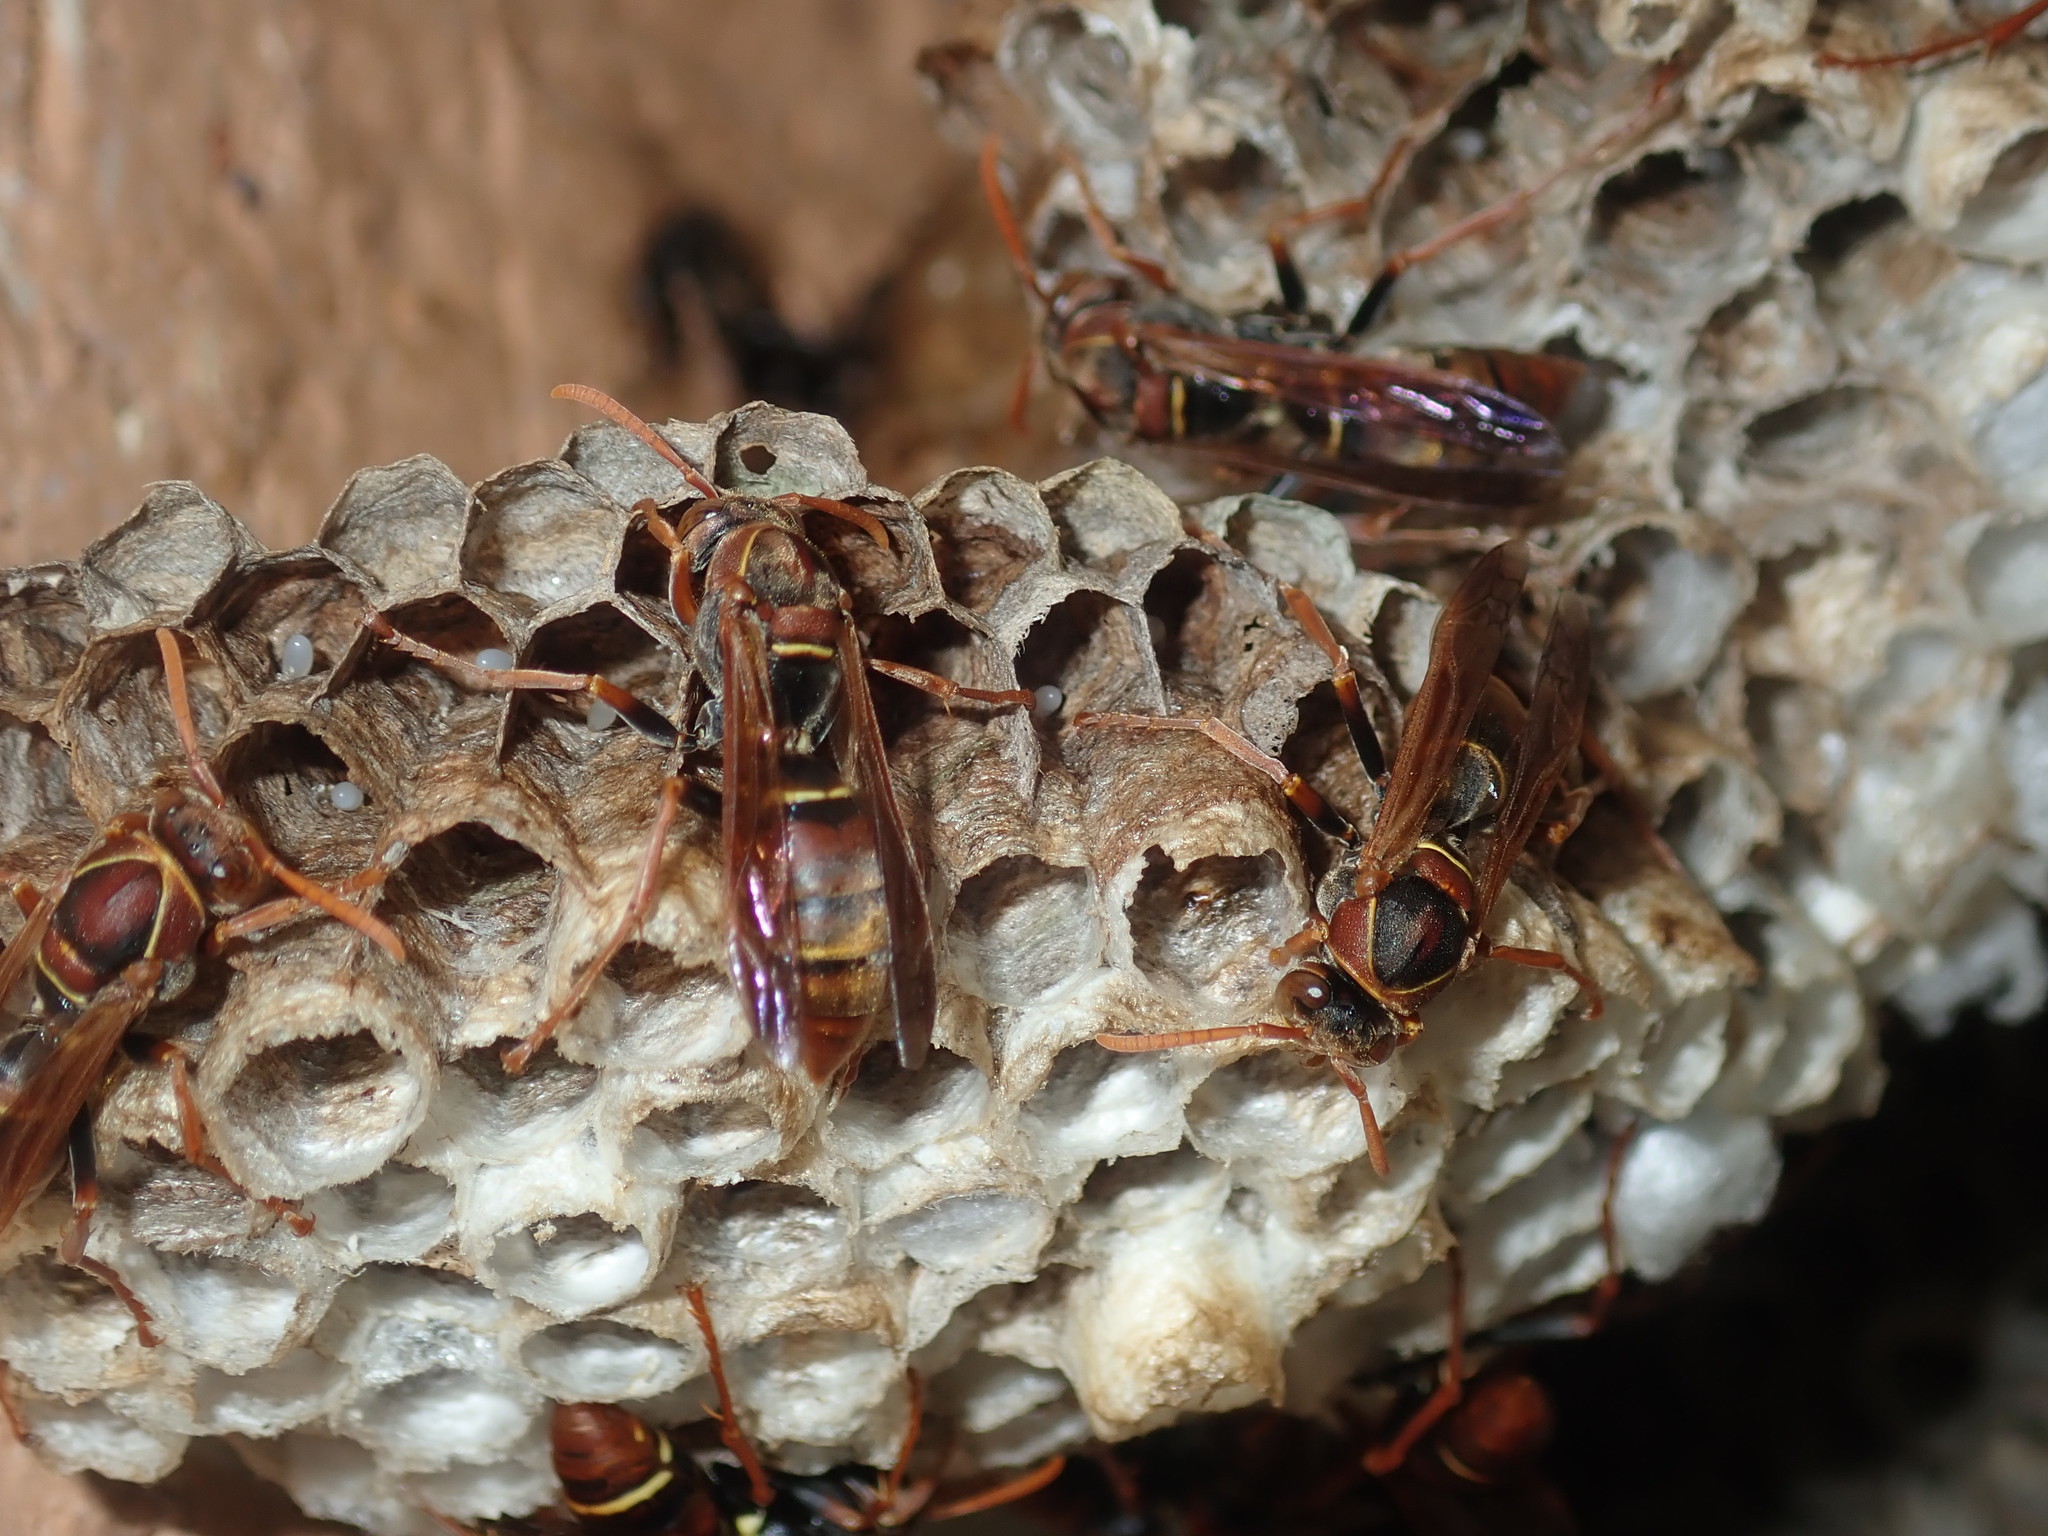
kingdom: Animalia
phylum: Arthropoda
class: Insecta
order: Hymenoptera
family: Eumenidae
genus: Polistes
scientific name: Polistes humilis
